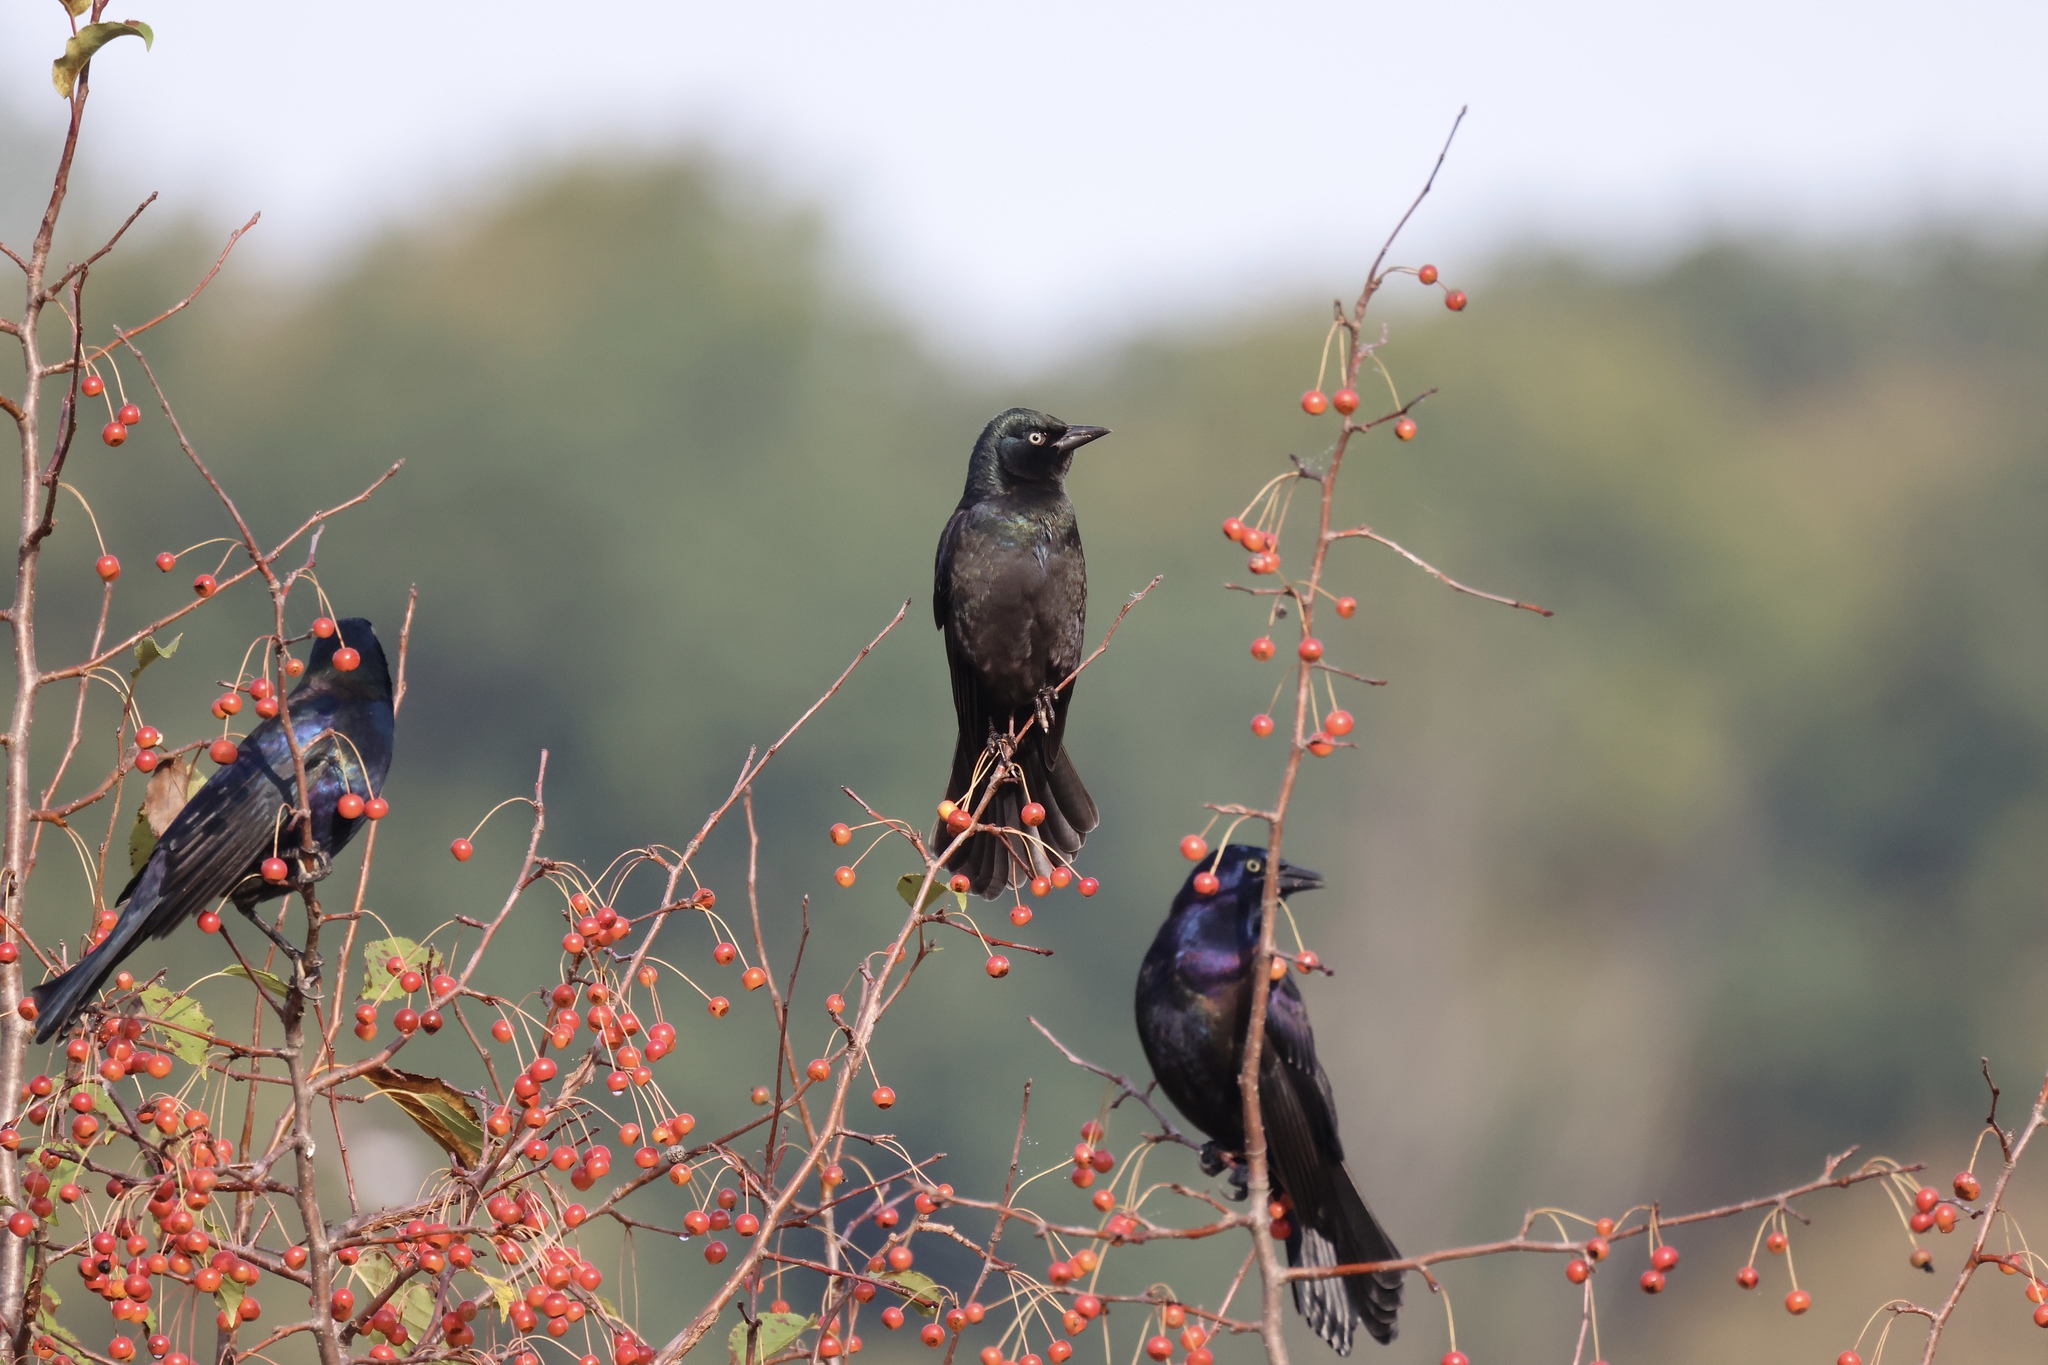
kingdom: Animalia
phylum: Chordata
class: Aves
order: Passeriformes
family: Icteridae
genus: Quiscalus
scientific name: Quiscalus quiscula
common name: Common grackle
